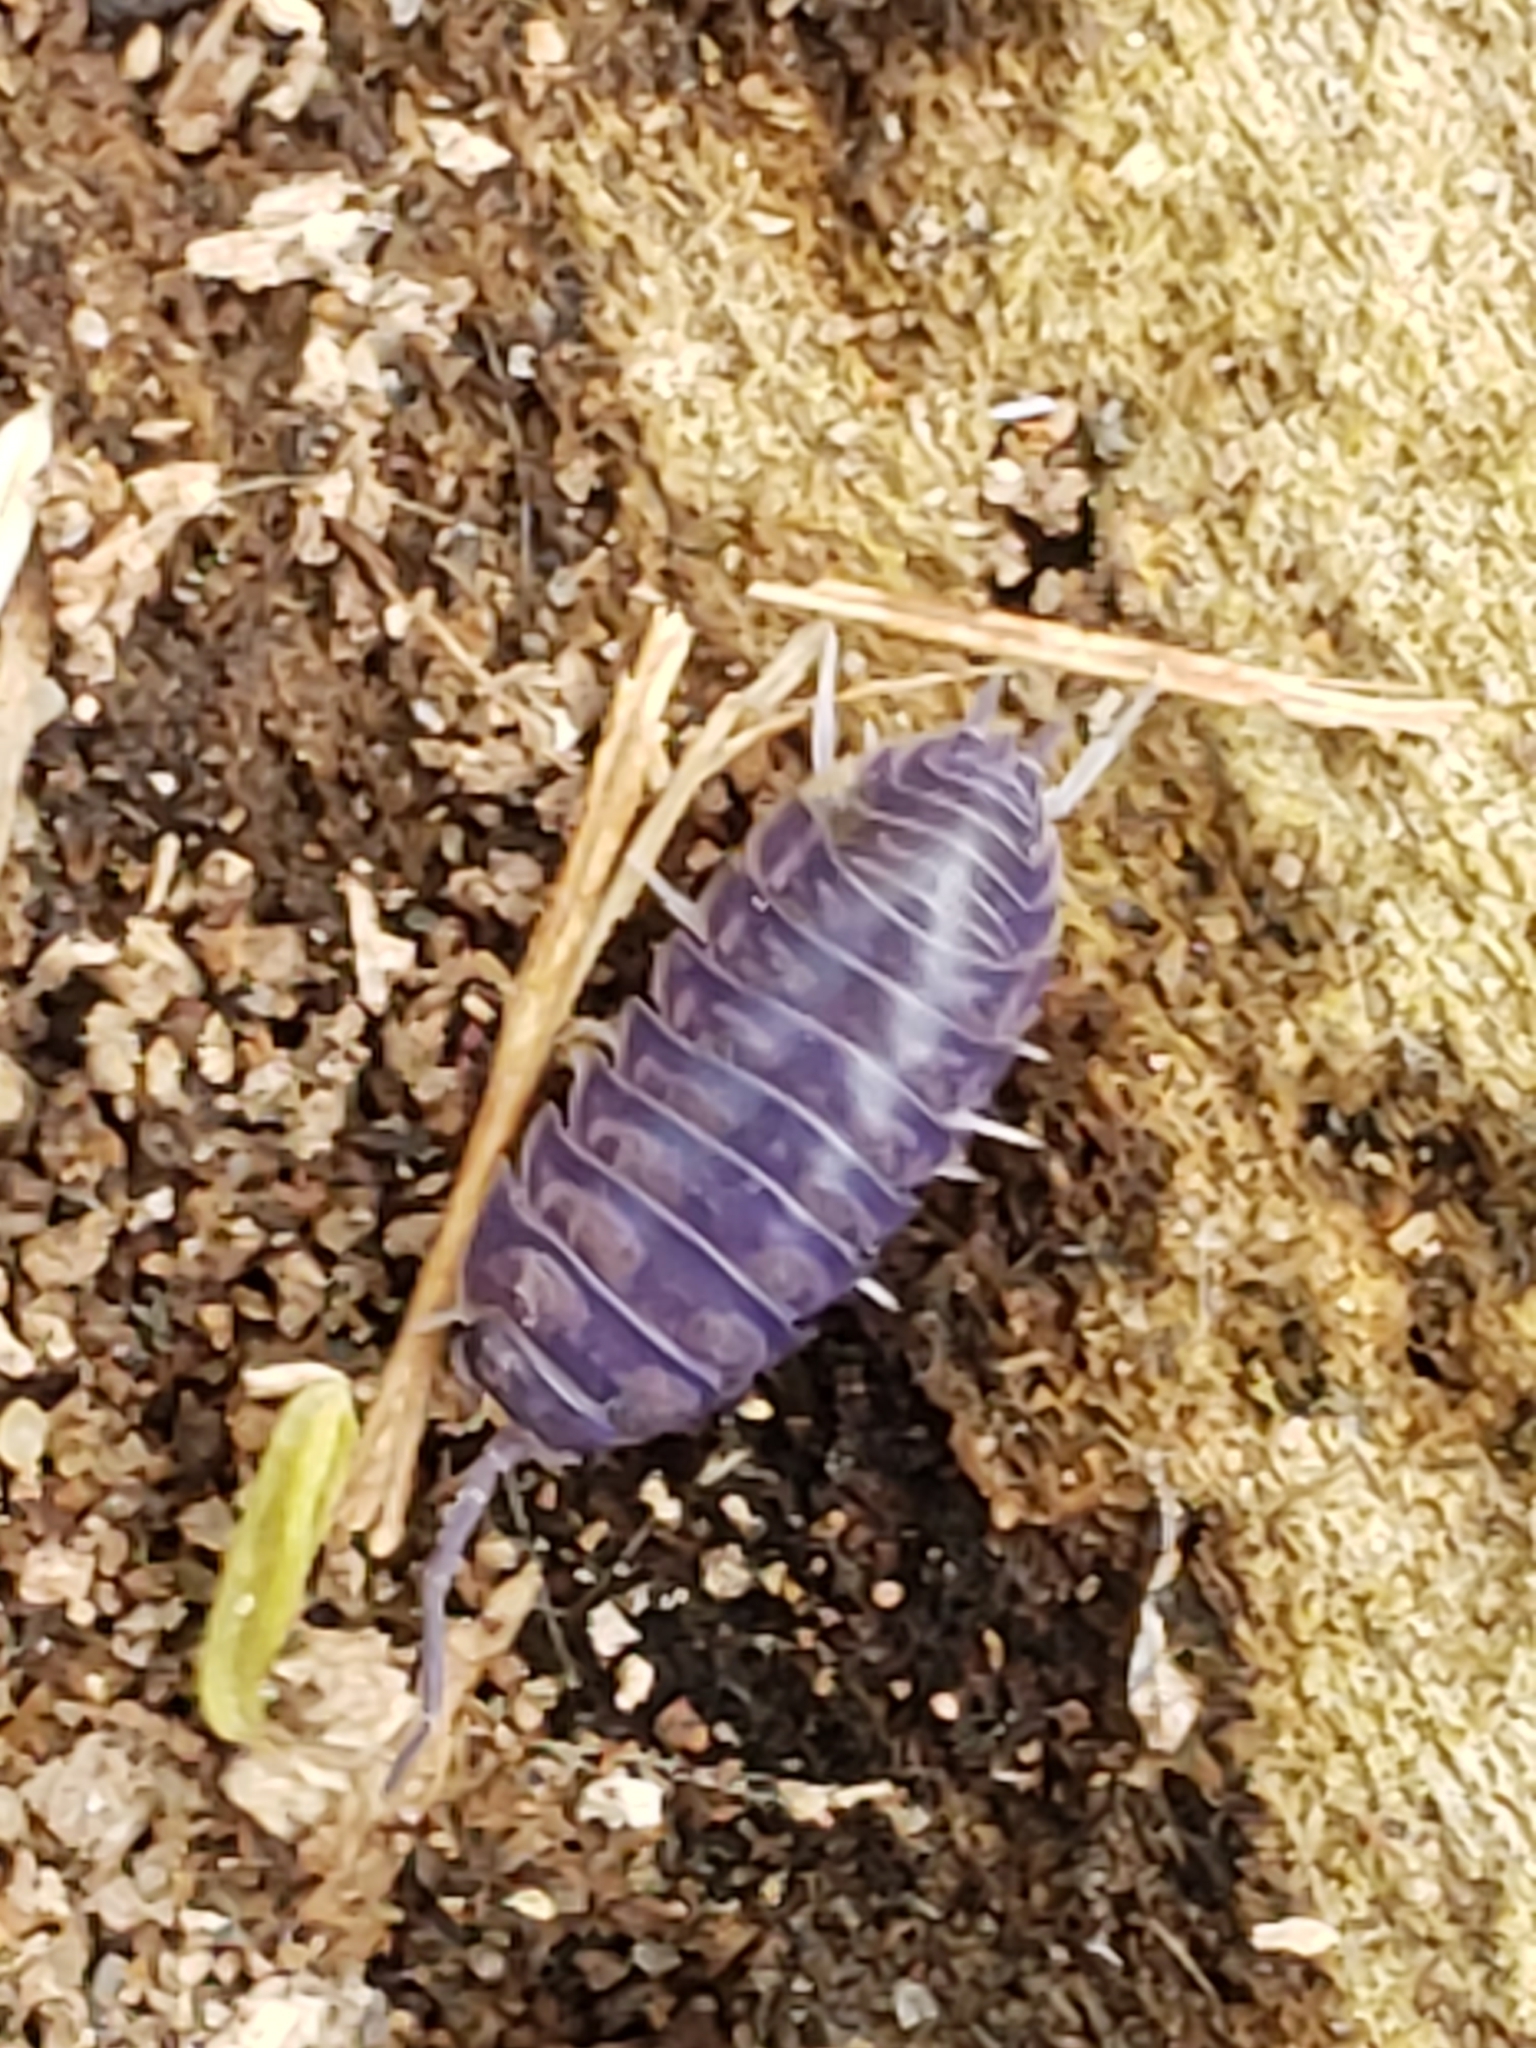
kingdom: Viruses
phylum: Nucleocytoviricota
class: Megaviricetes
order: Pimascovirales
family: Iridoviridae
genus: Iridovirus
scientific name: Iridovirus Invertebrate iridescent virus 31
